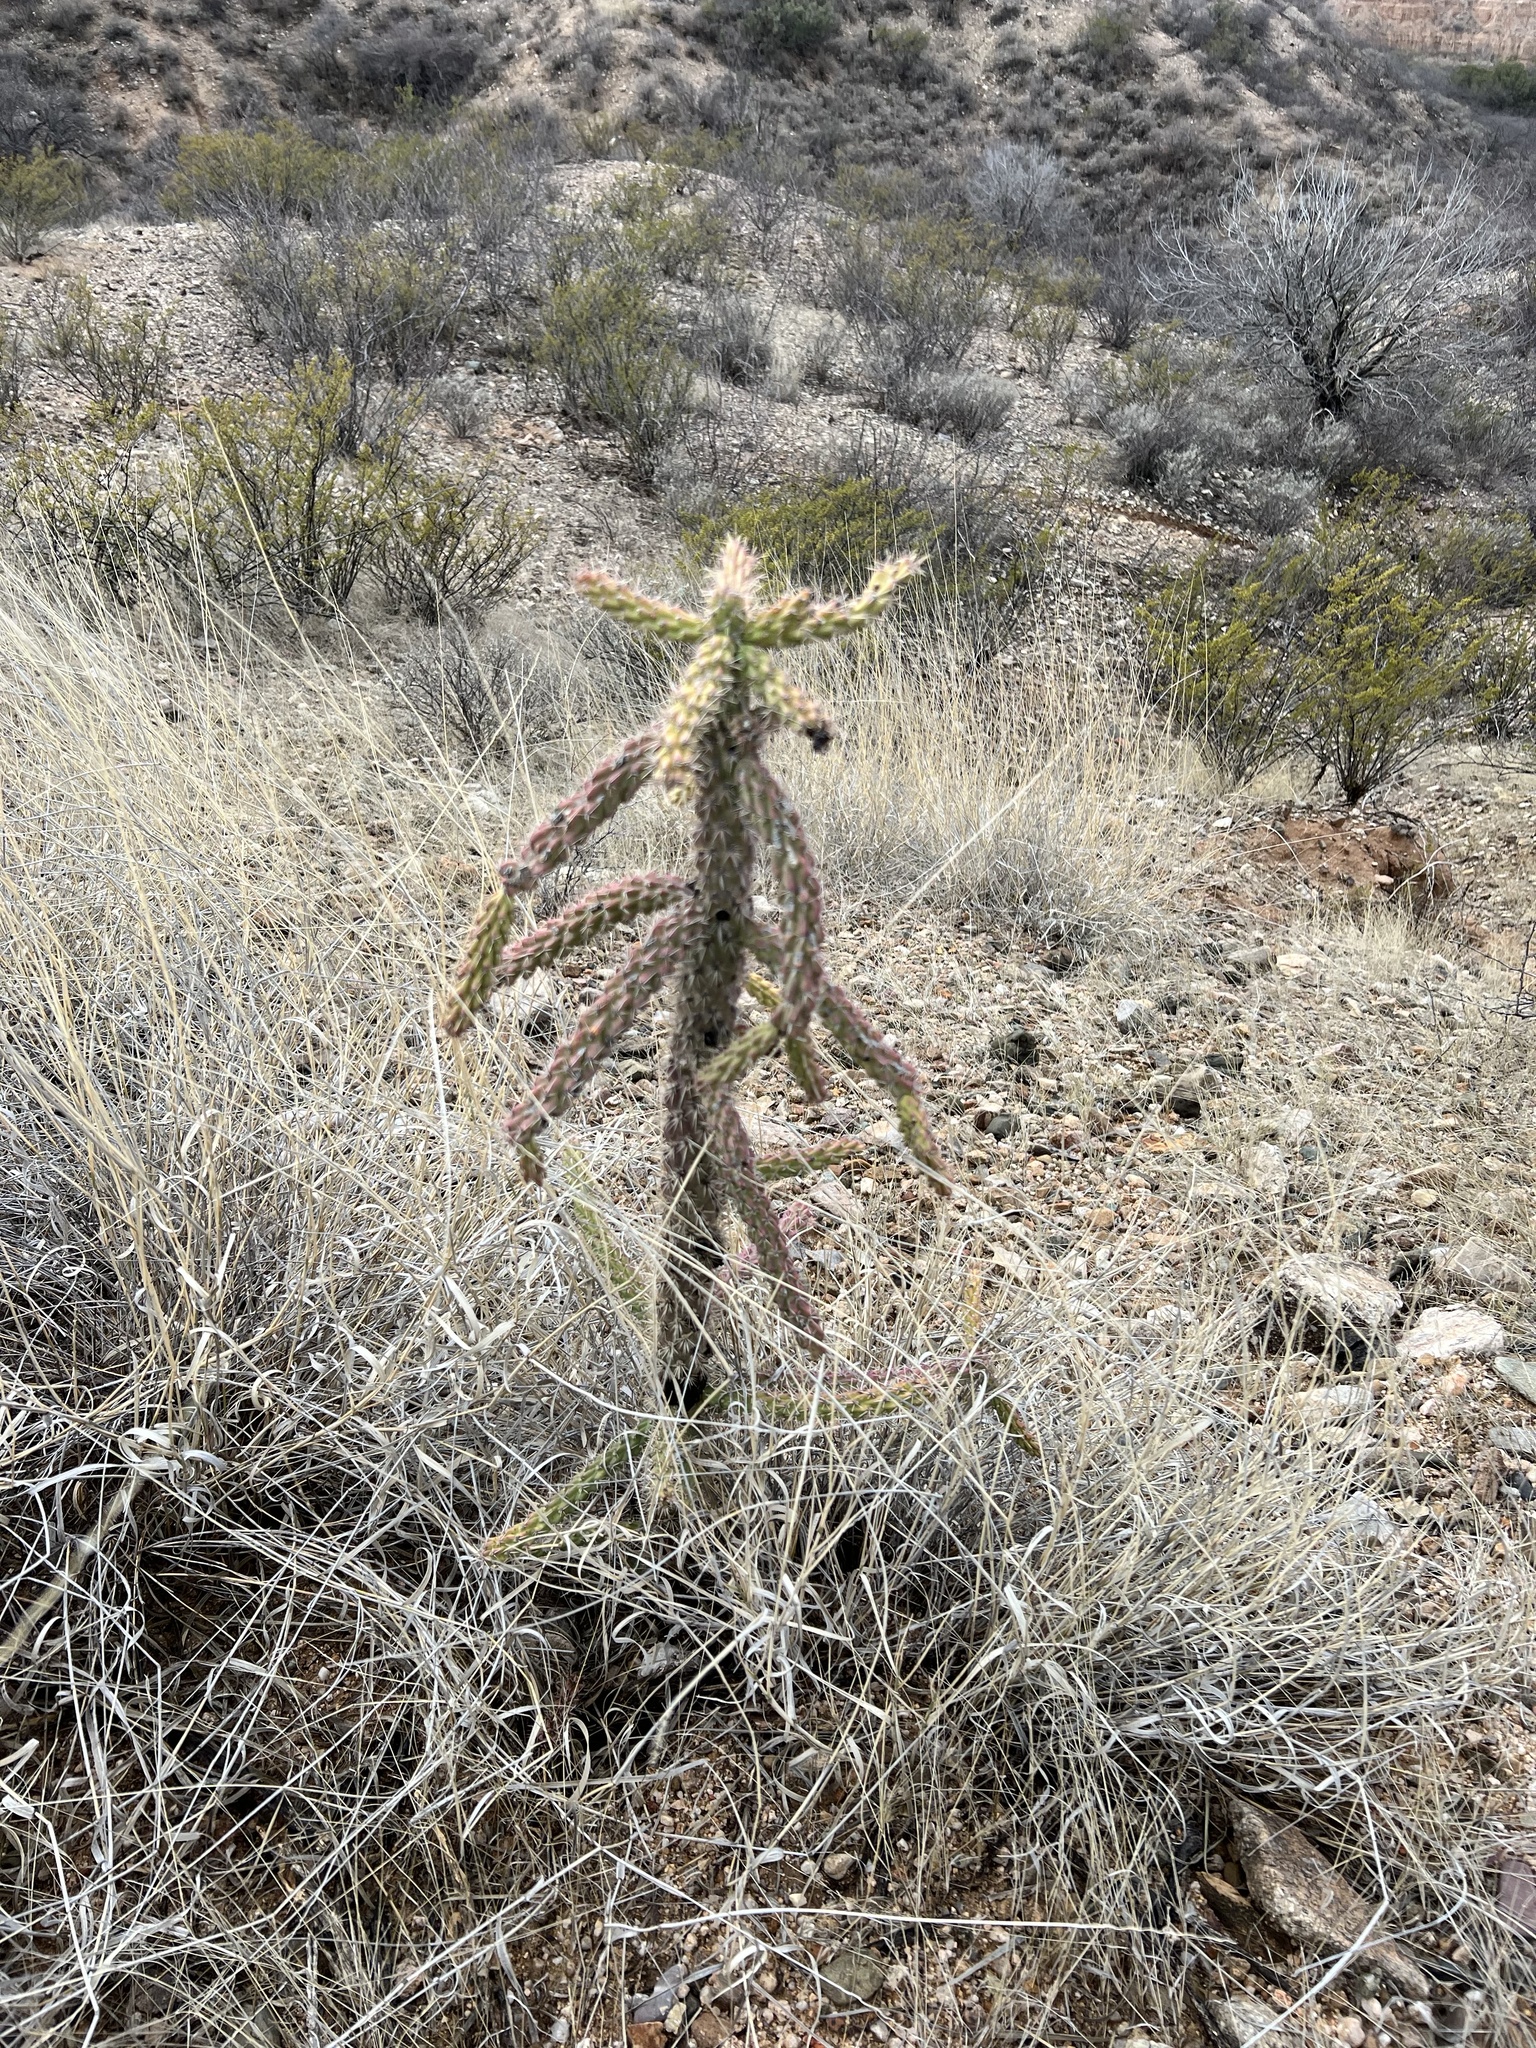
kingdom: Plantae
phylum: Tracheophyta
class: Magnoliopsida
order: Caryophyllales
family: Cactaceae
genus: Cylindropuntia
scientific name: Cylindropuntia imbricata
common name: Candelabrum cactus
